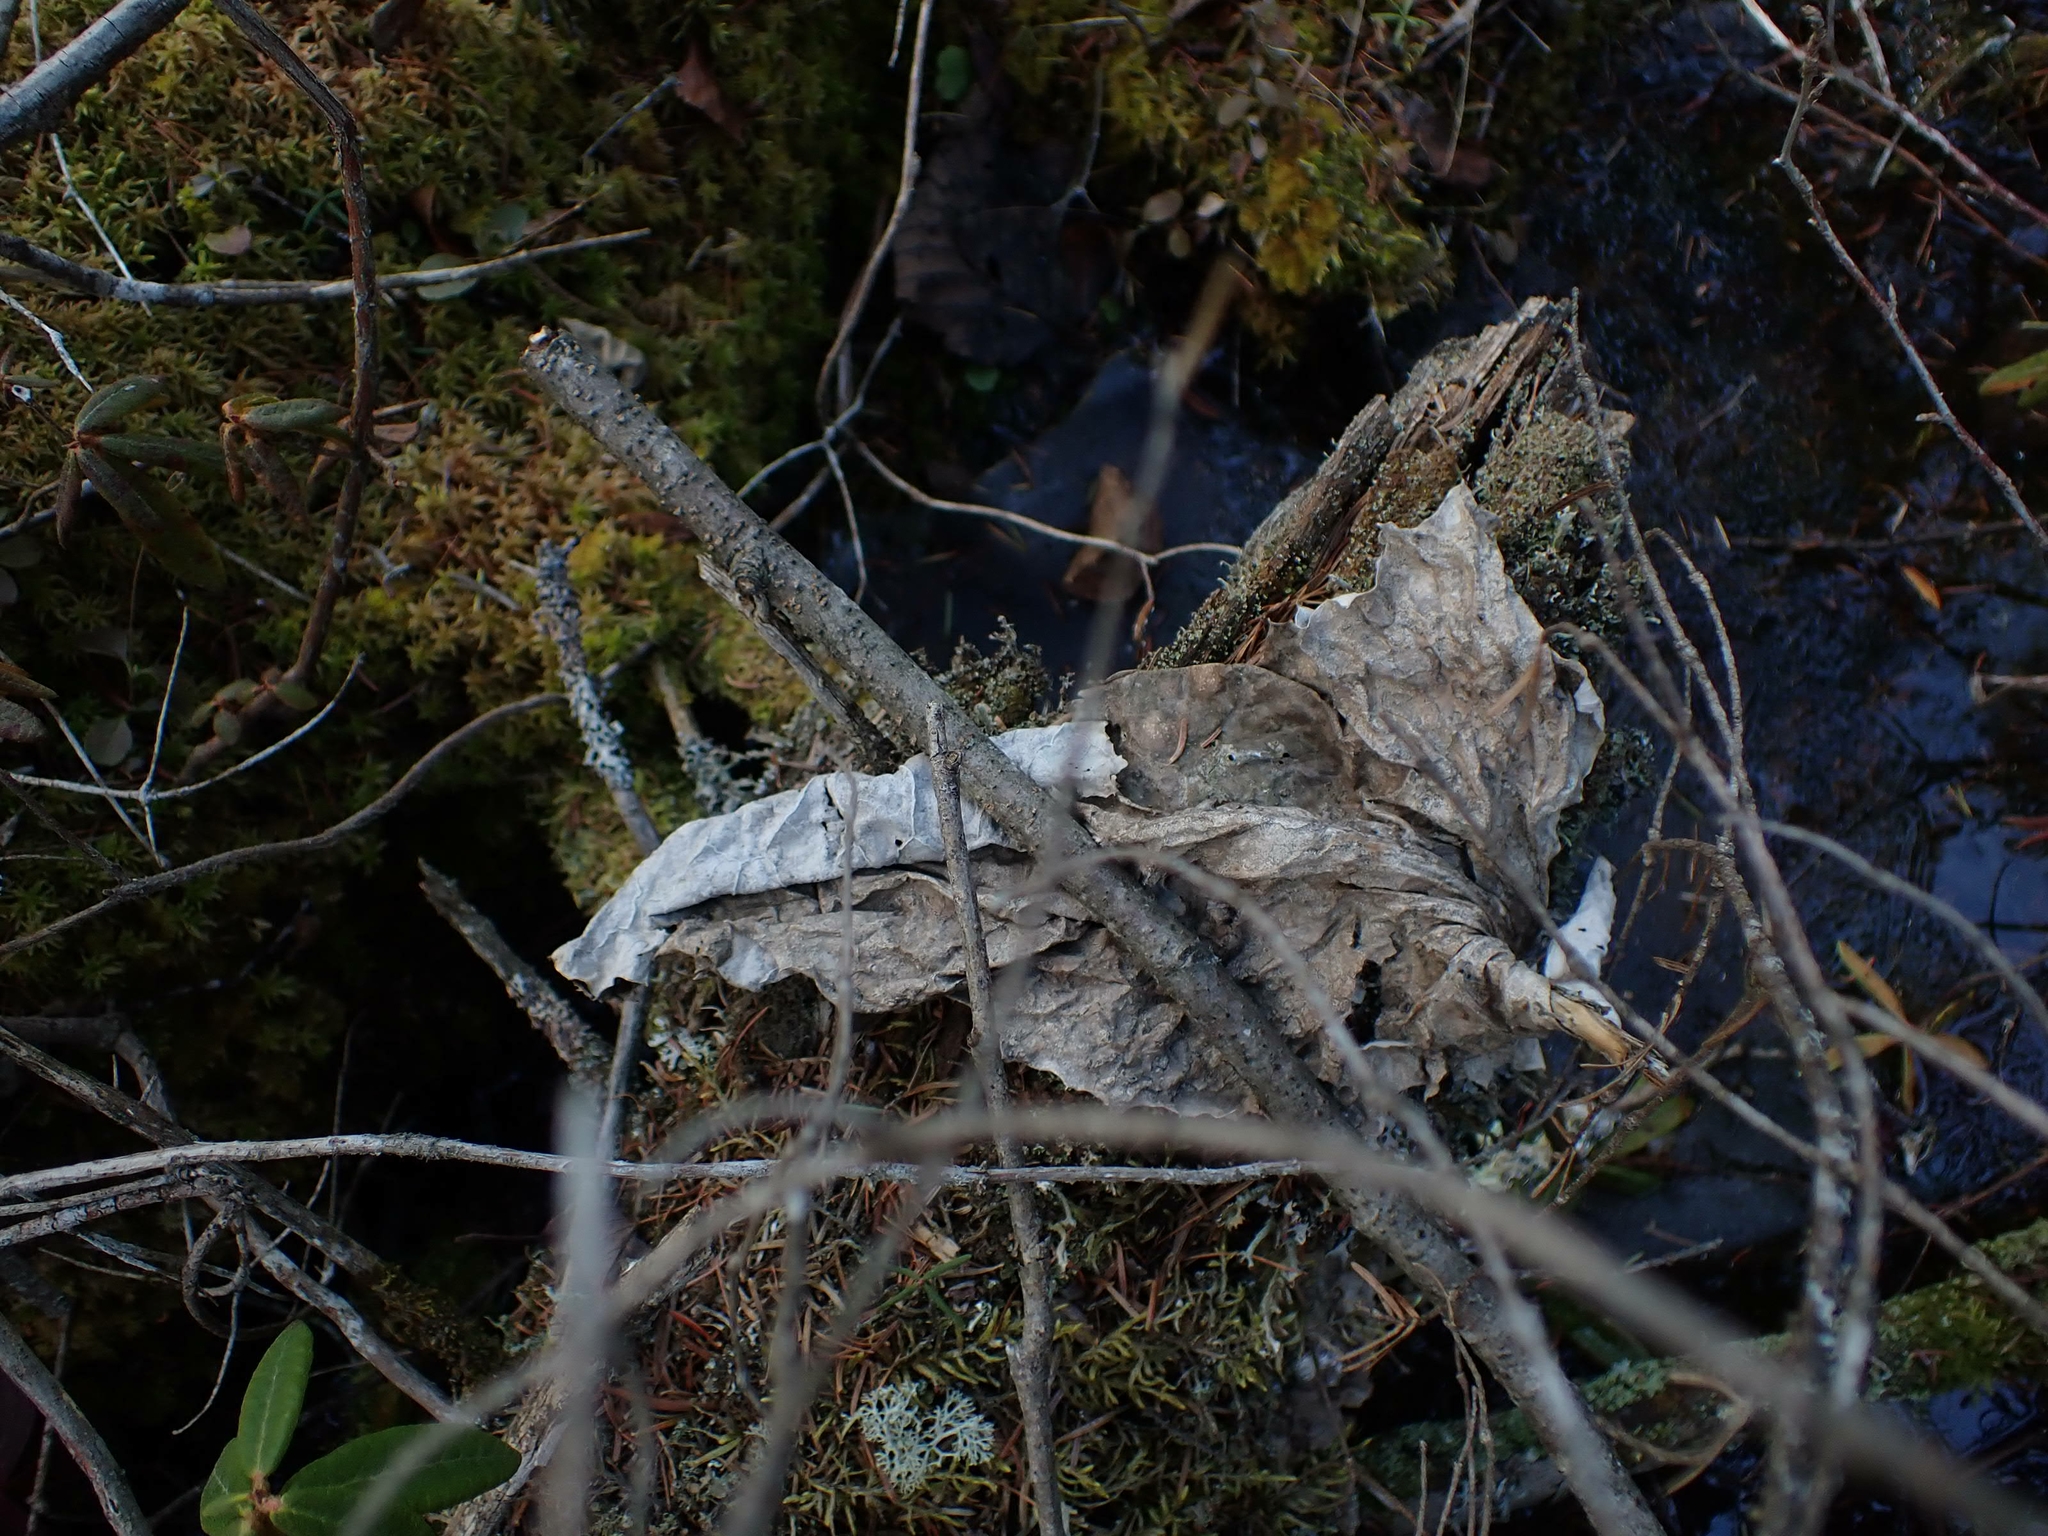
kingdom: Plantae
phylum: Tracheophyta
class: Magnoliopsida
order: Asterales
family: Asteraceae
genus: Petasites
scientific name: Petasites frigidus
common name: Arctic butterbur
